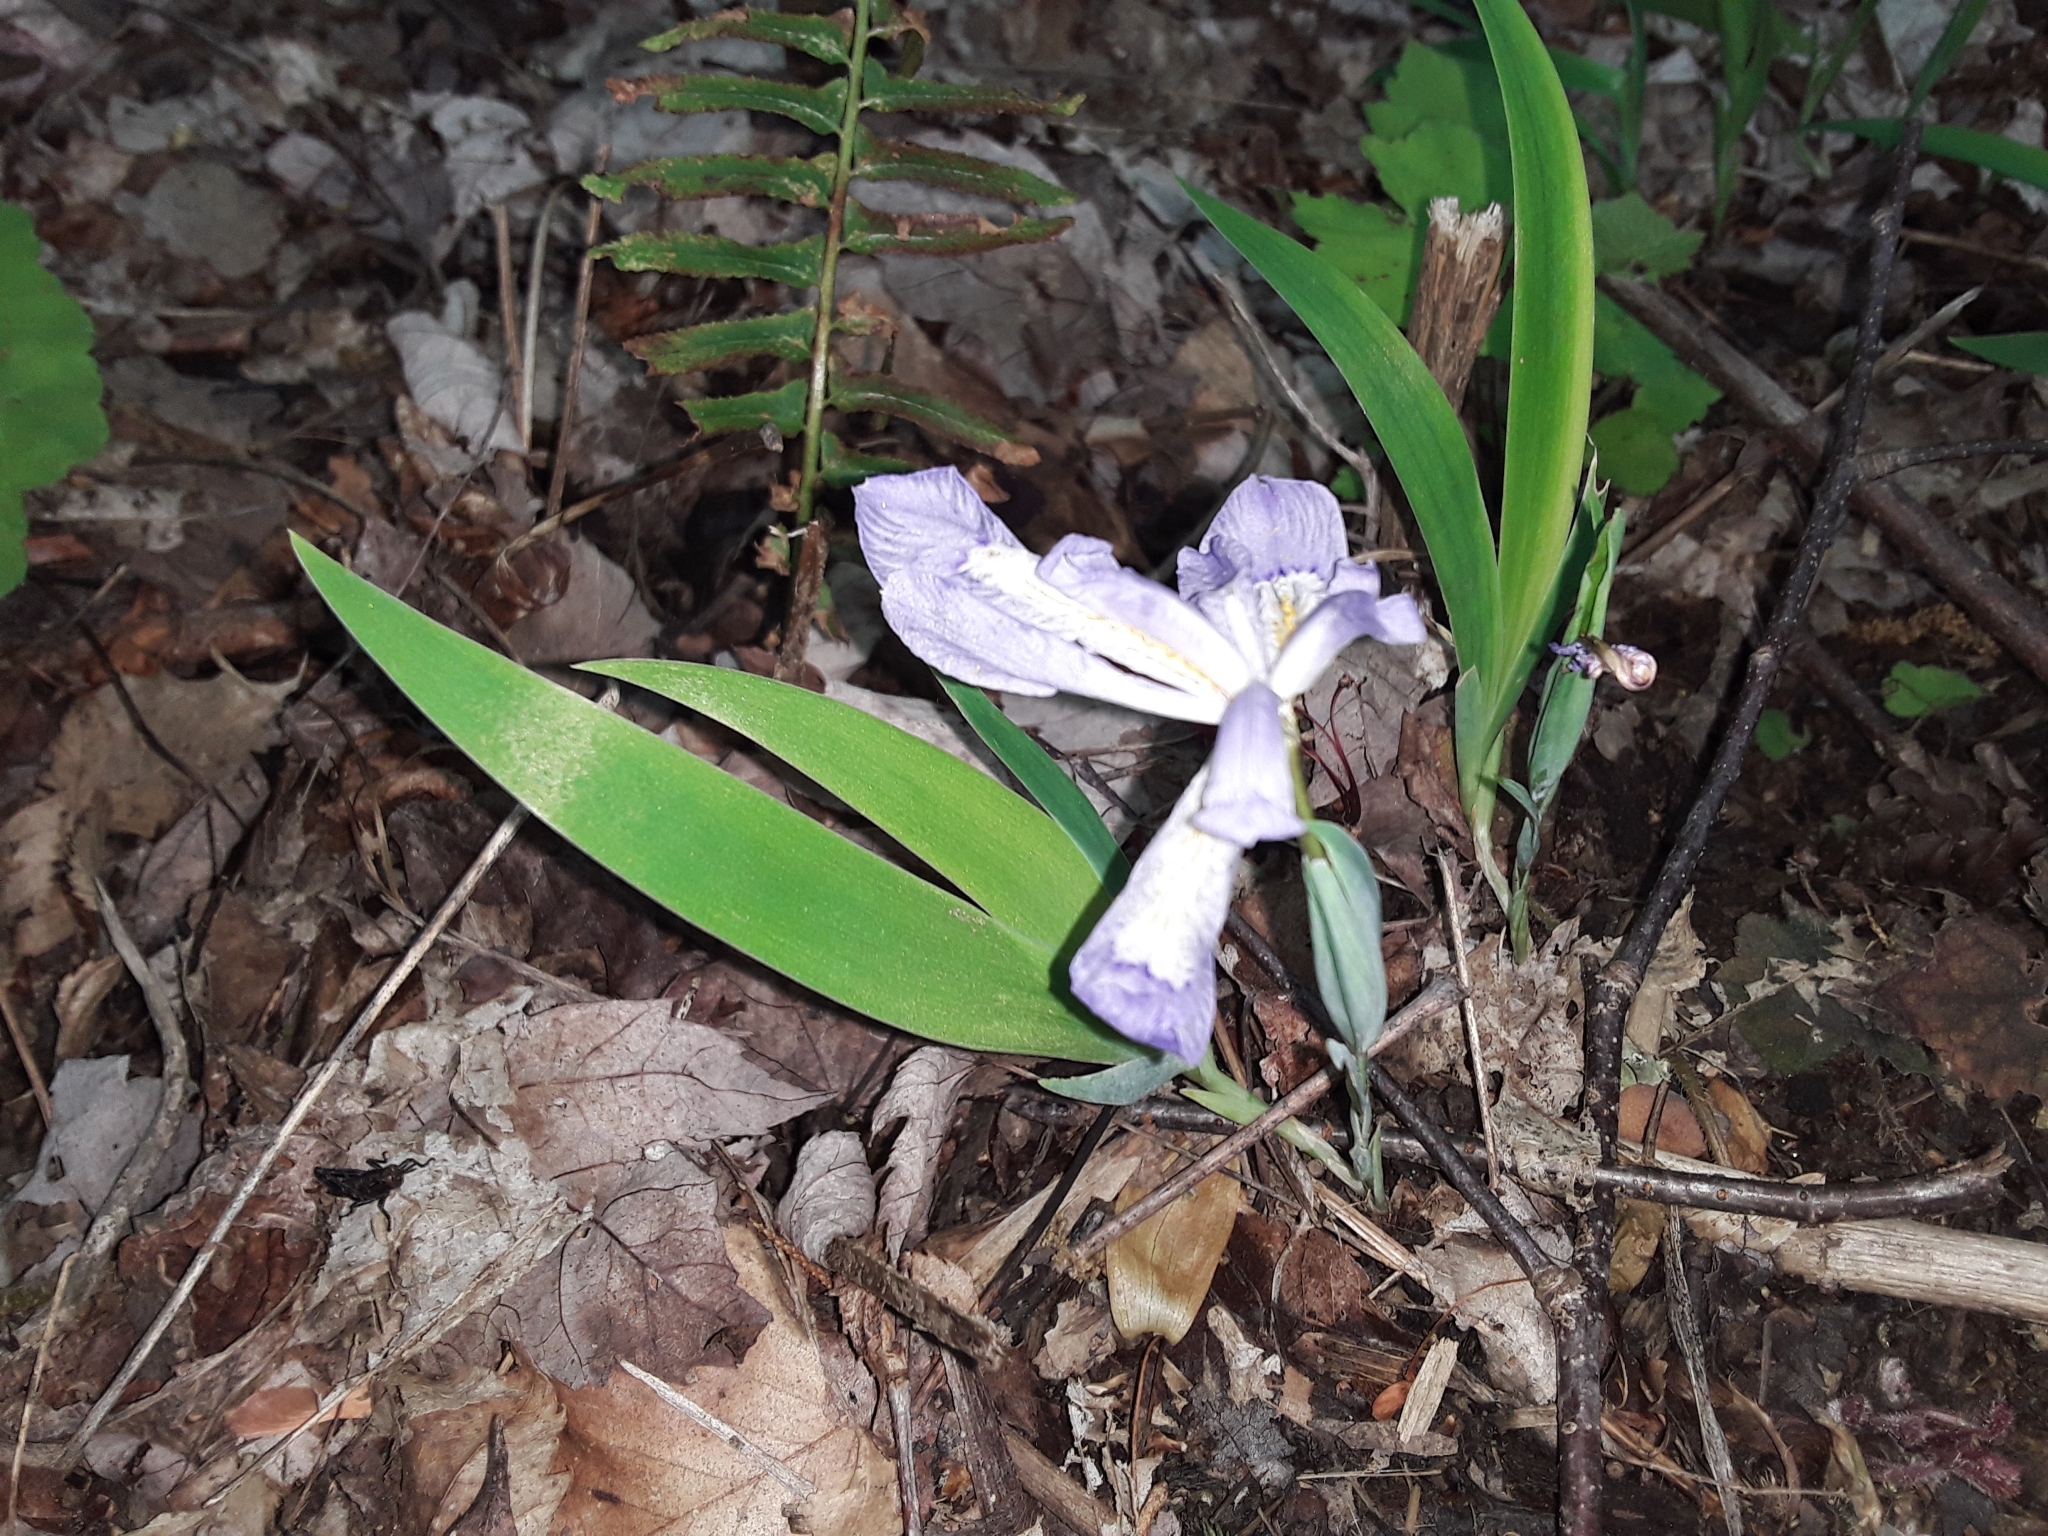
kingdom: Plantae
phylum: Tracheophyta
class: Liliopsida
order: Asparagales
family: Iridaceae
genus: Iris
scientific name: Iris cristata
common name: Crested iris
